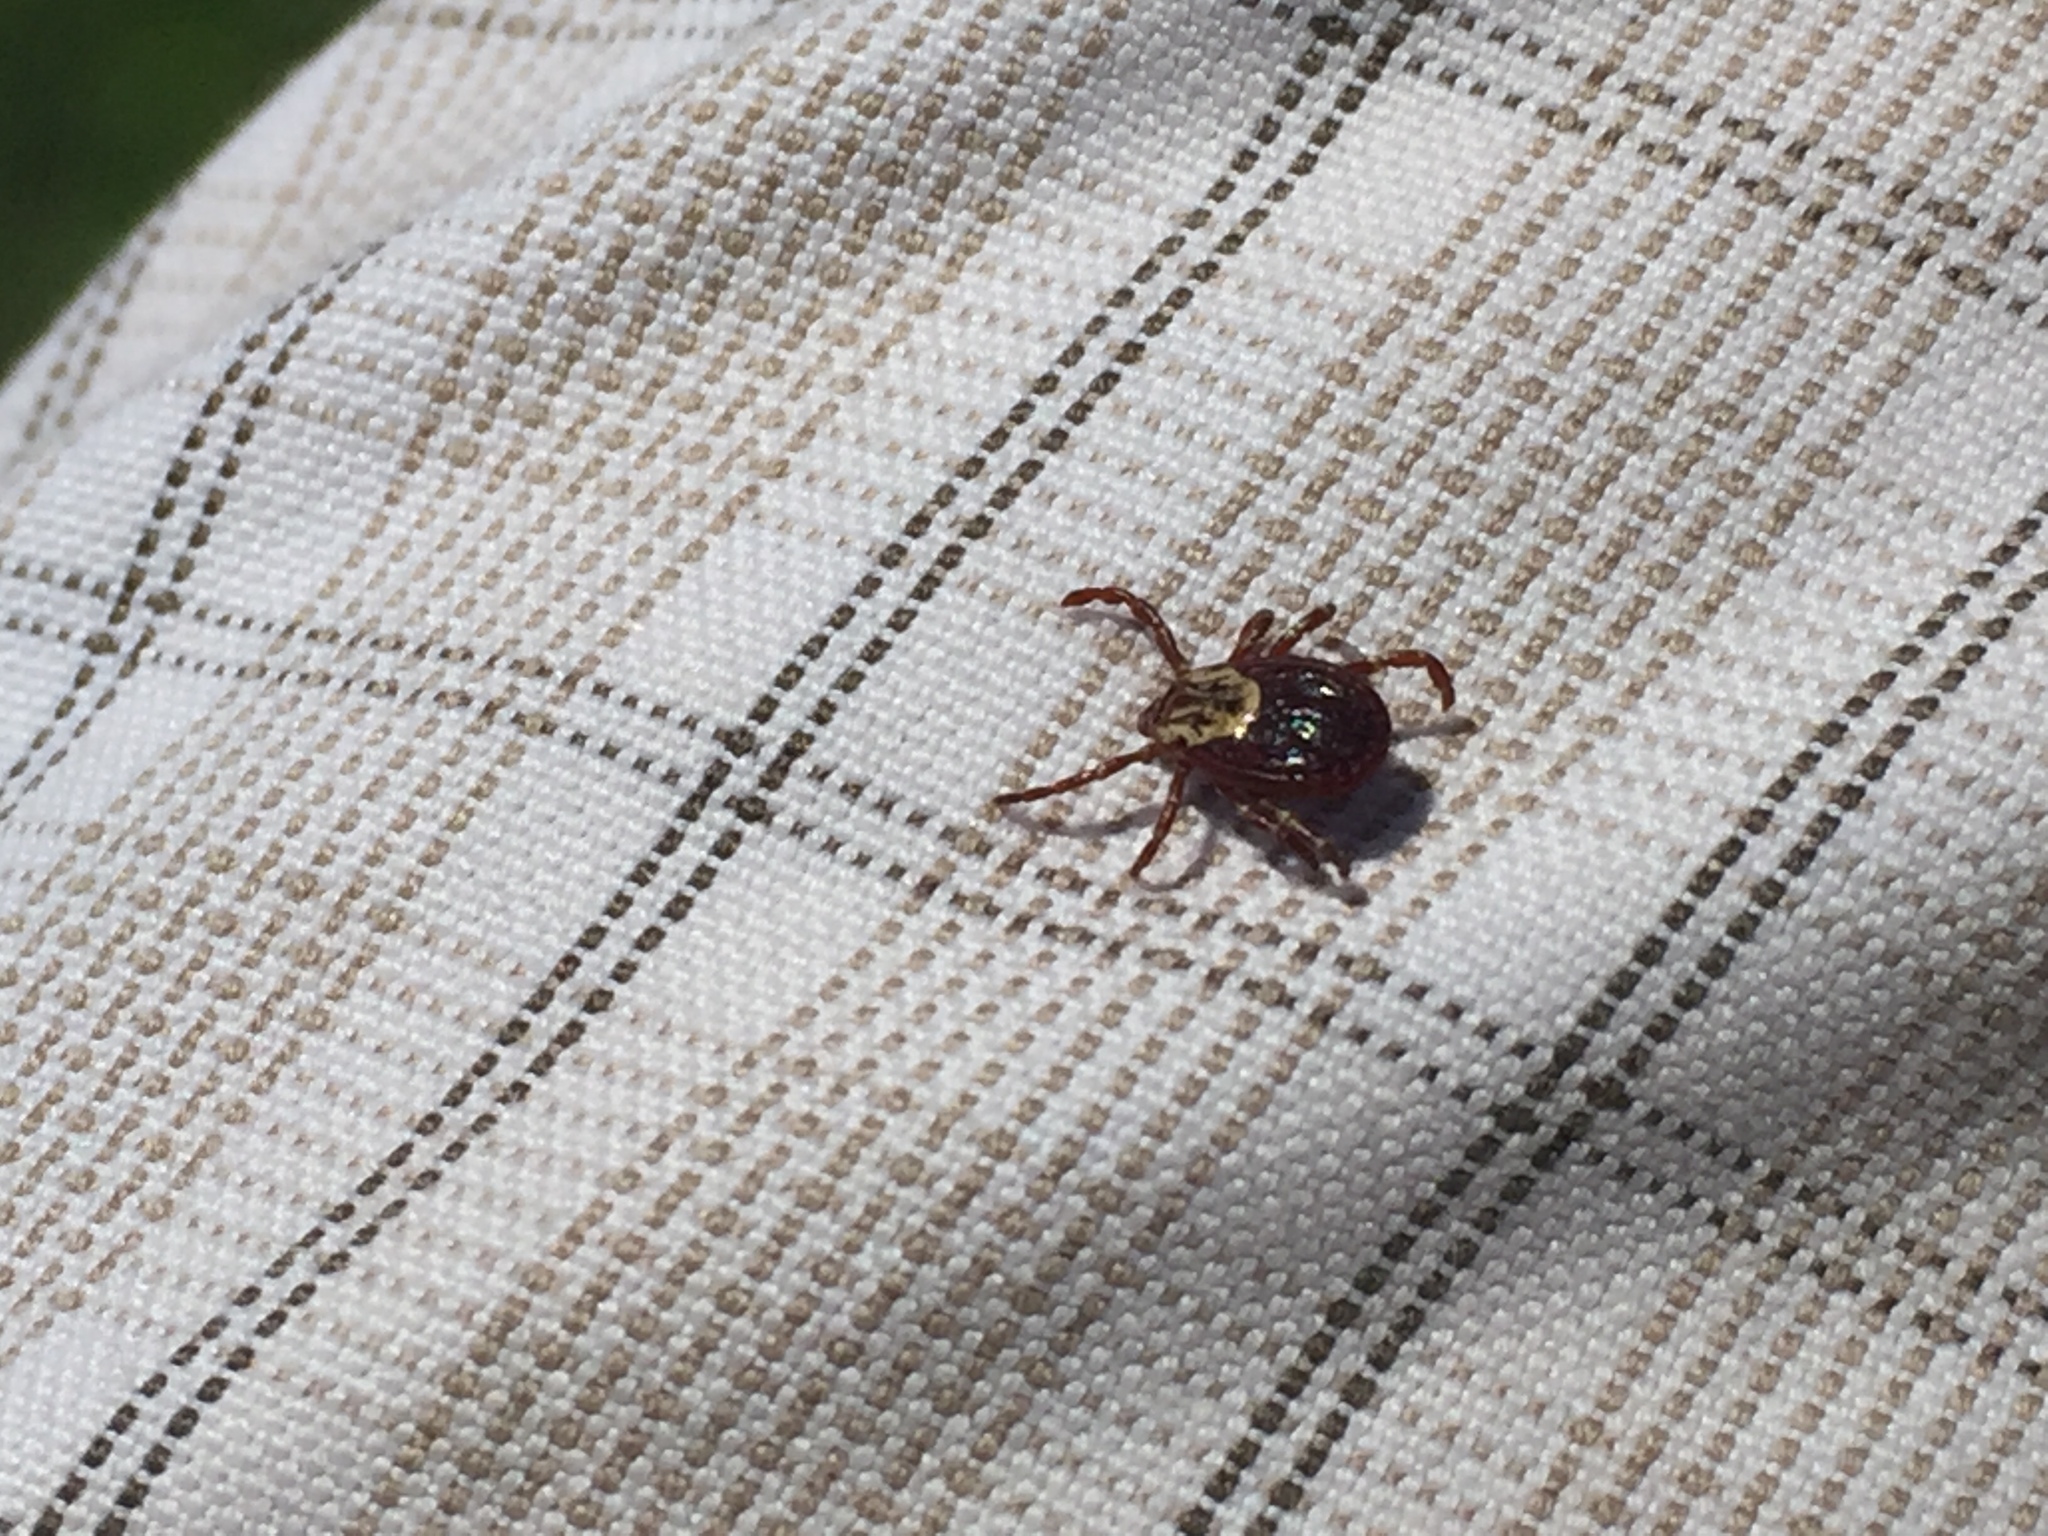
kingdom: Animalia
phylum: Arthropoda
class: Arachnida
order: Ixodida
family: Ixodidae
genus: Dermacentor
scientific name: Dermacentor variabilis
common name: American dog tick
